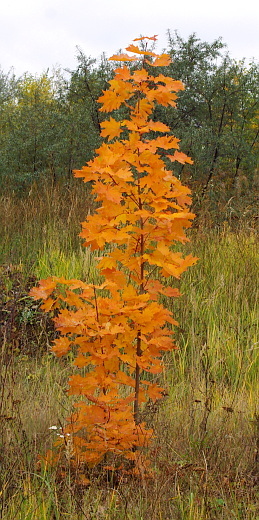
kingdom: Plantae
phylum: Tracheophyta
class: Magnoliopsida
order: Sapindales
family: Sapindaceae
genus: Acer
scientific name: Acer platanoides
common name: Norway maple
